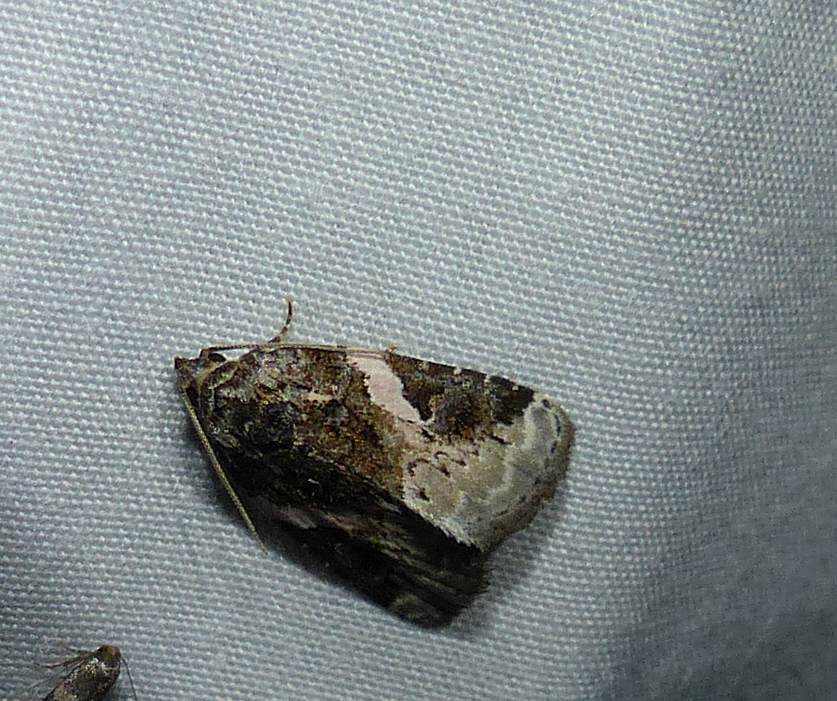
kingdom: Animalia
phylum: Arthropoda
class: Insecta
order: Lepidoptera
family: Noctuidae
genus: Pseudeustrotia
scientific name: Pseudeustrotia carneola
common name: Pink-barred lithacodia moth
